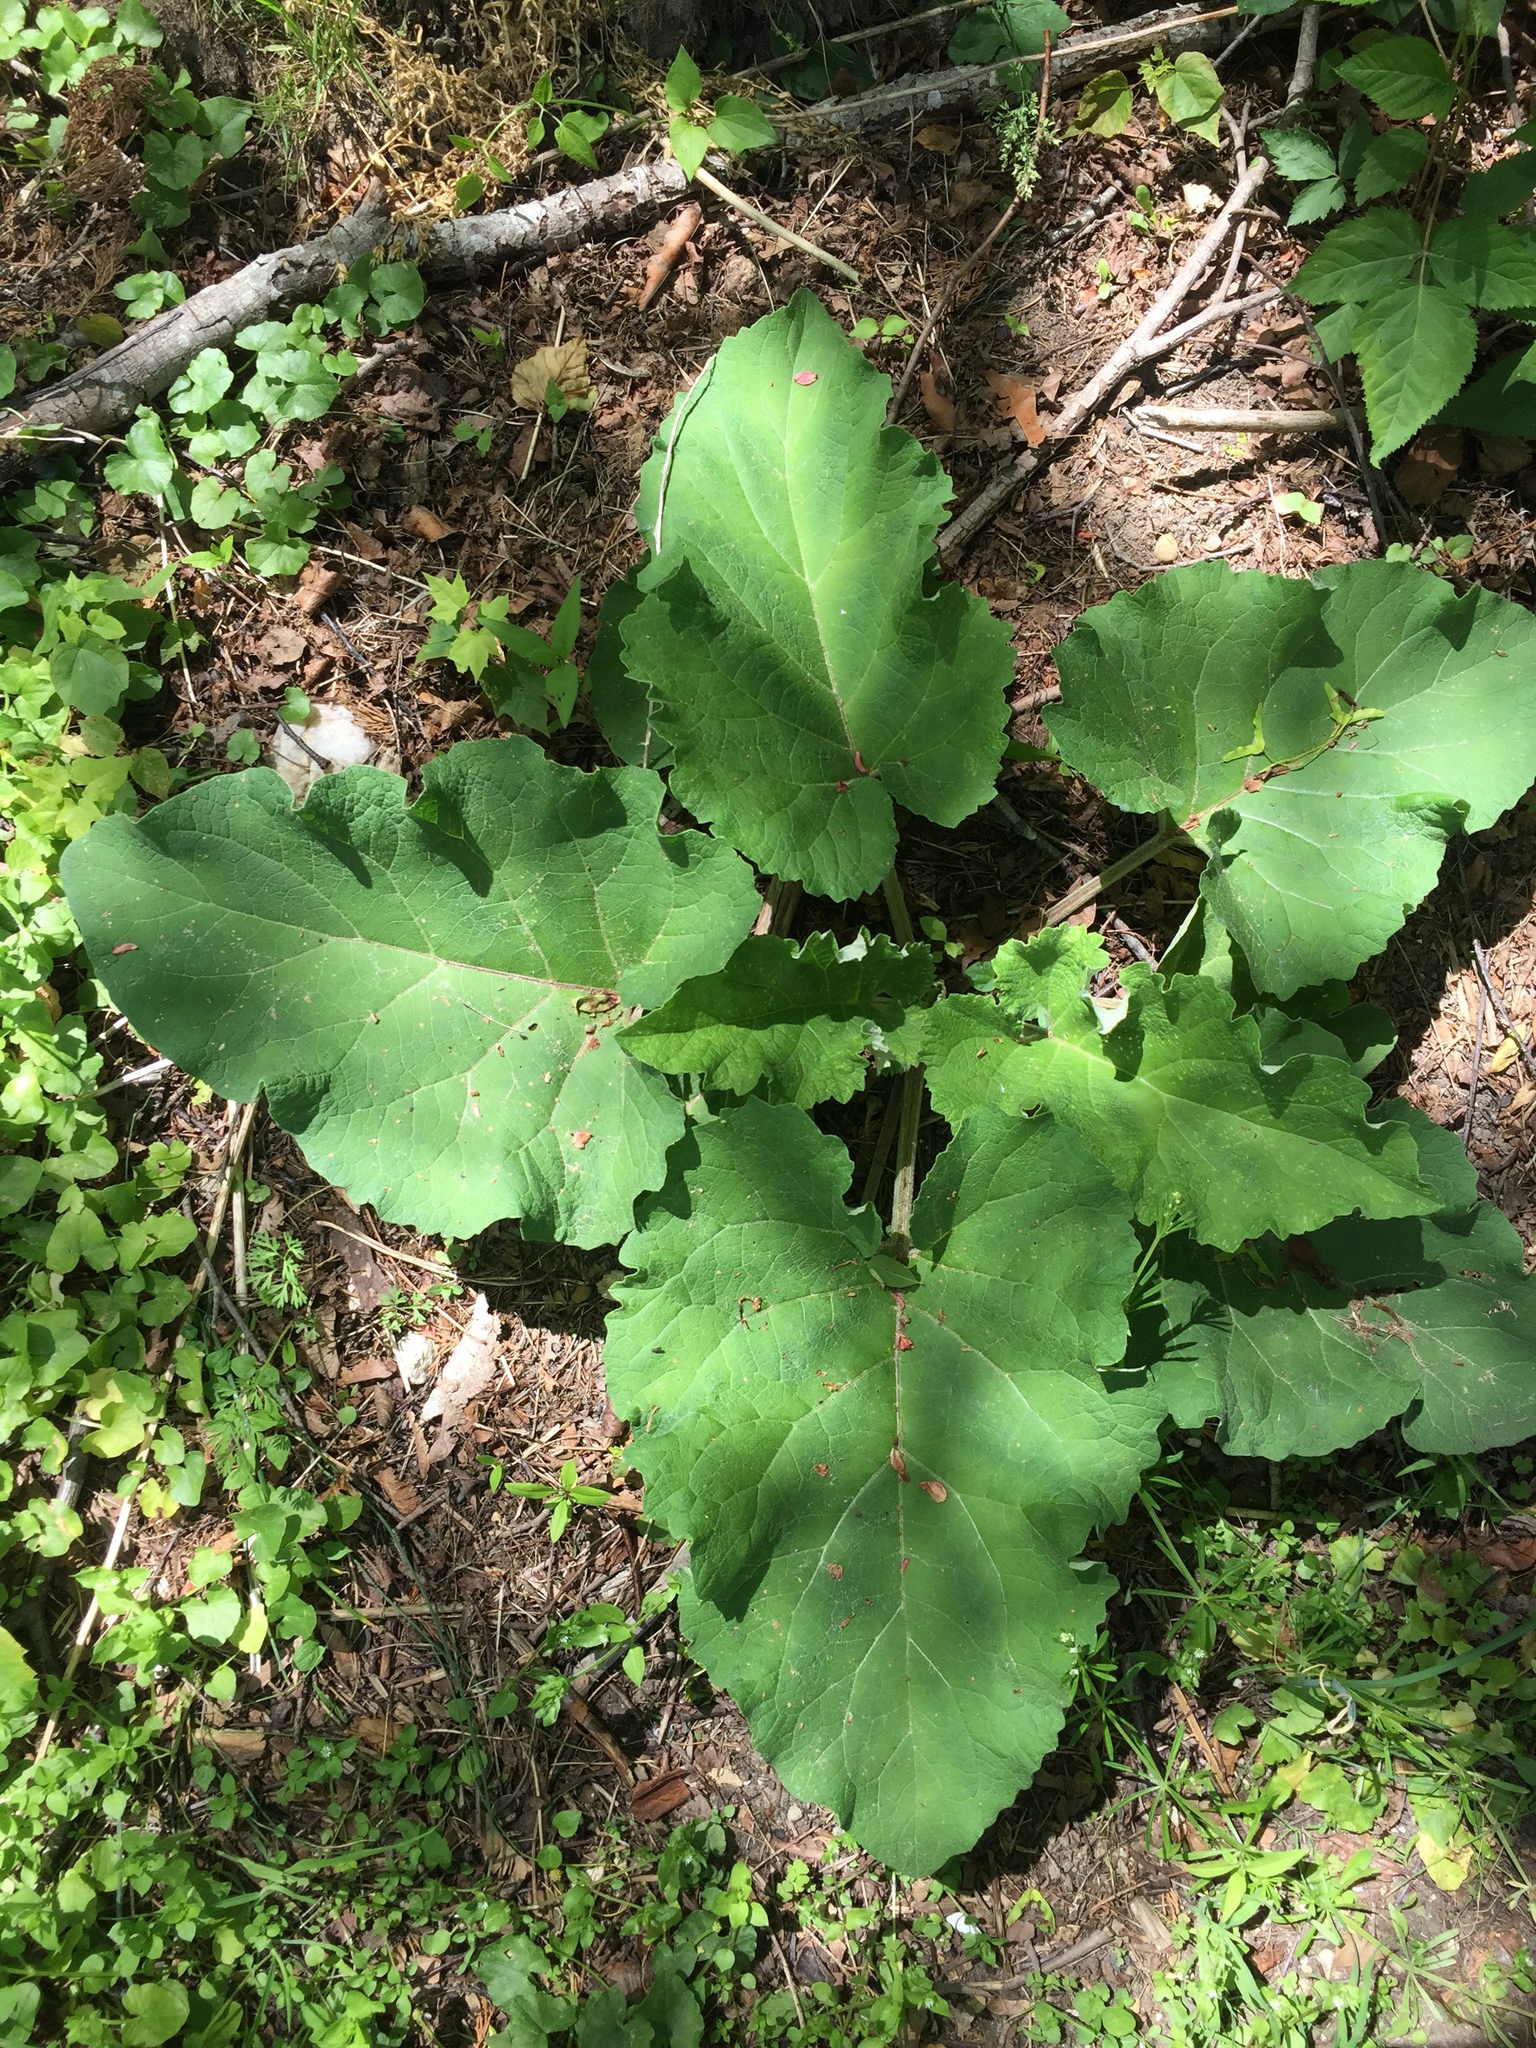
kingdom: Plantae
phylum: Tracheophyta
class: Magnoliopsida
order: Asterales
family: Asteraceae
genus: Arctium
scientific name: Arctium
